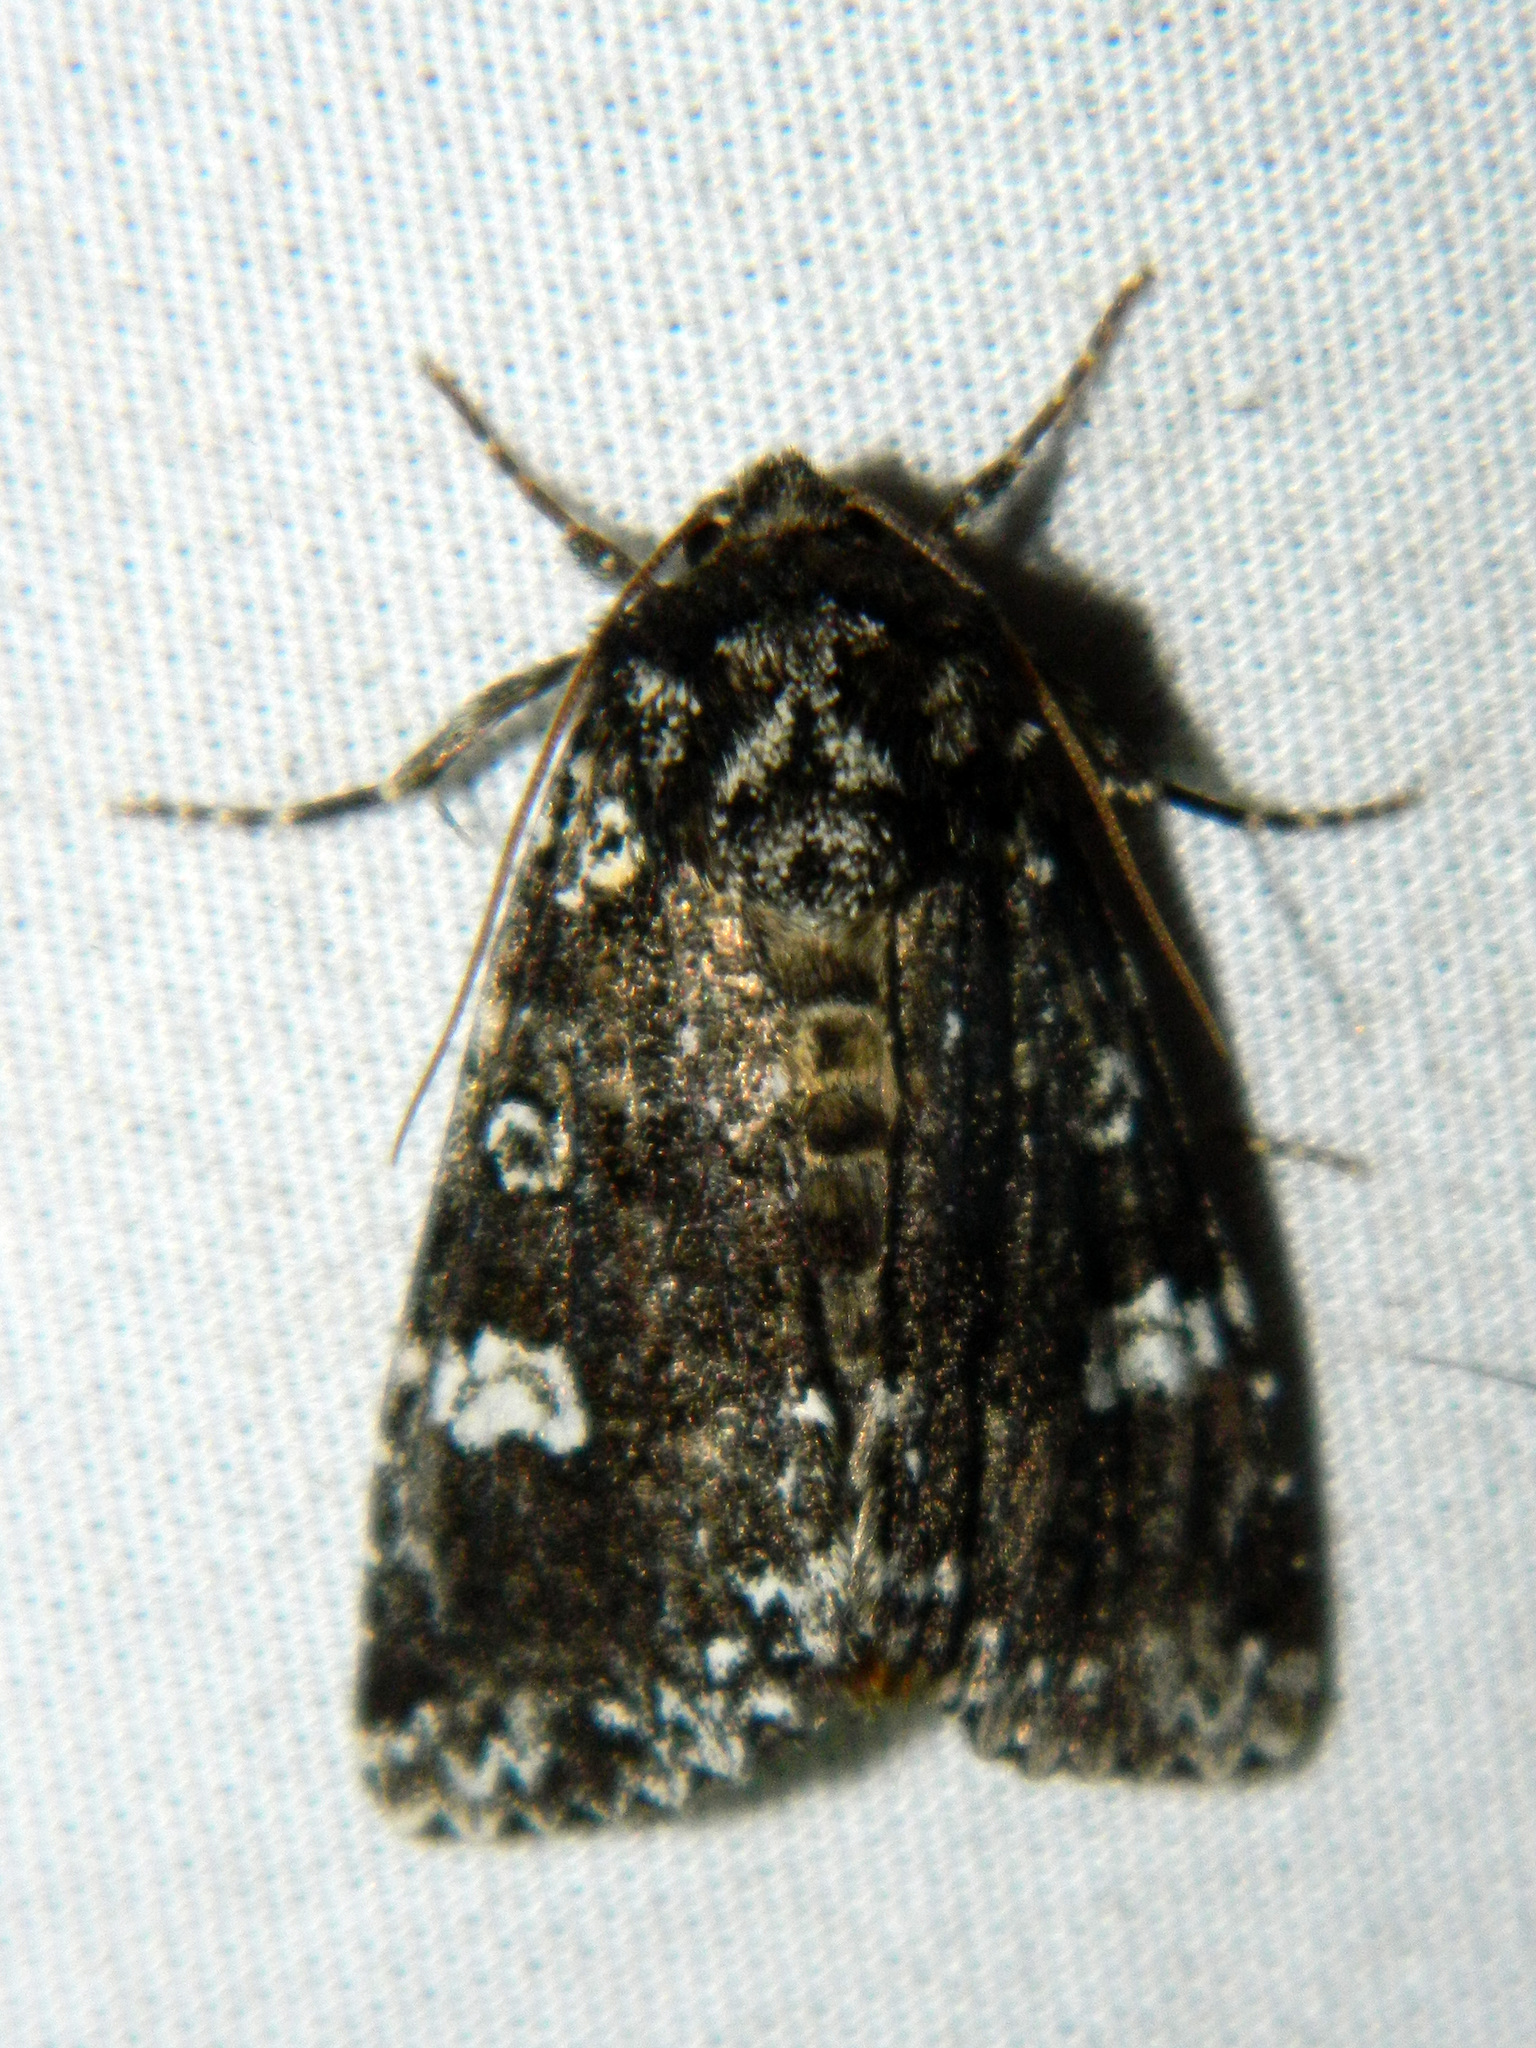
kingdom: Animalia
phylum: Arthropoda
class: Insecta
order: Lepidoptera
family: Noctuidae
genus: Melanchra
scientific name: Melanchra adjuncta
